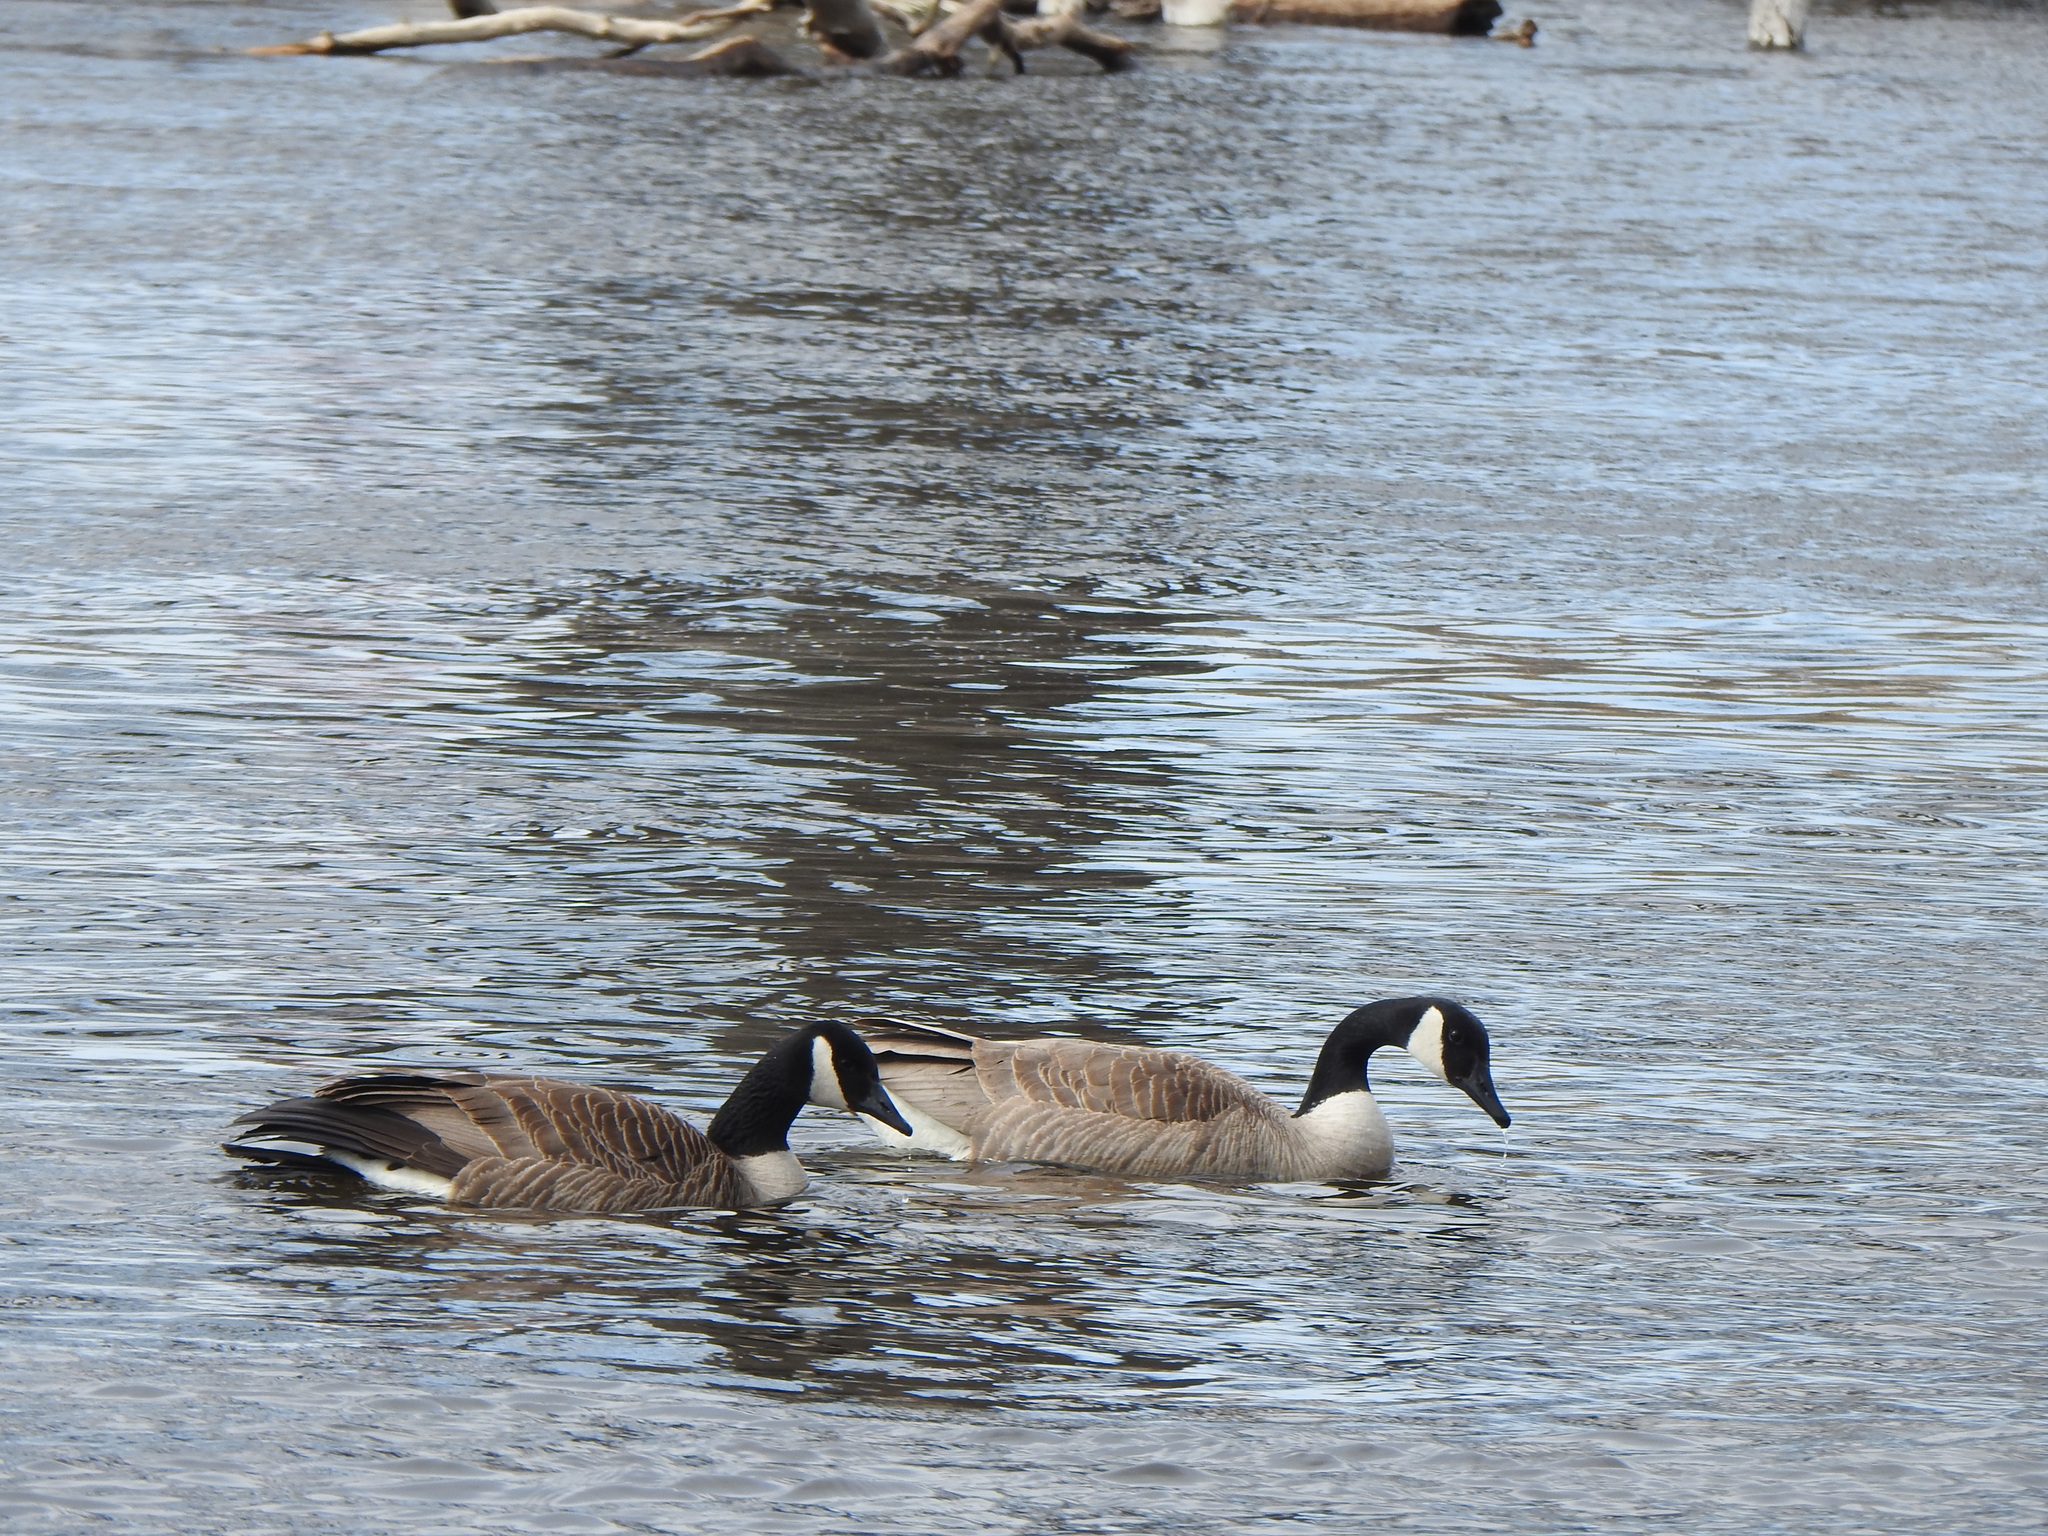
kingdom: Animalia
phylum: Chordata
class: Aves
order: Anseriformes
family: Anatidae
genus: Branta
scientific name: Branta canadensis
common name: Canada goose
